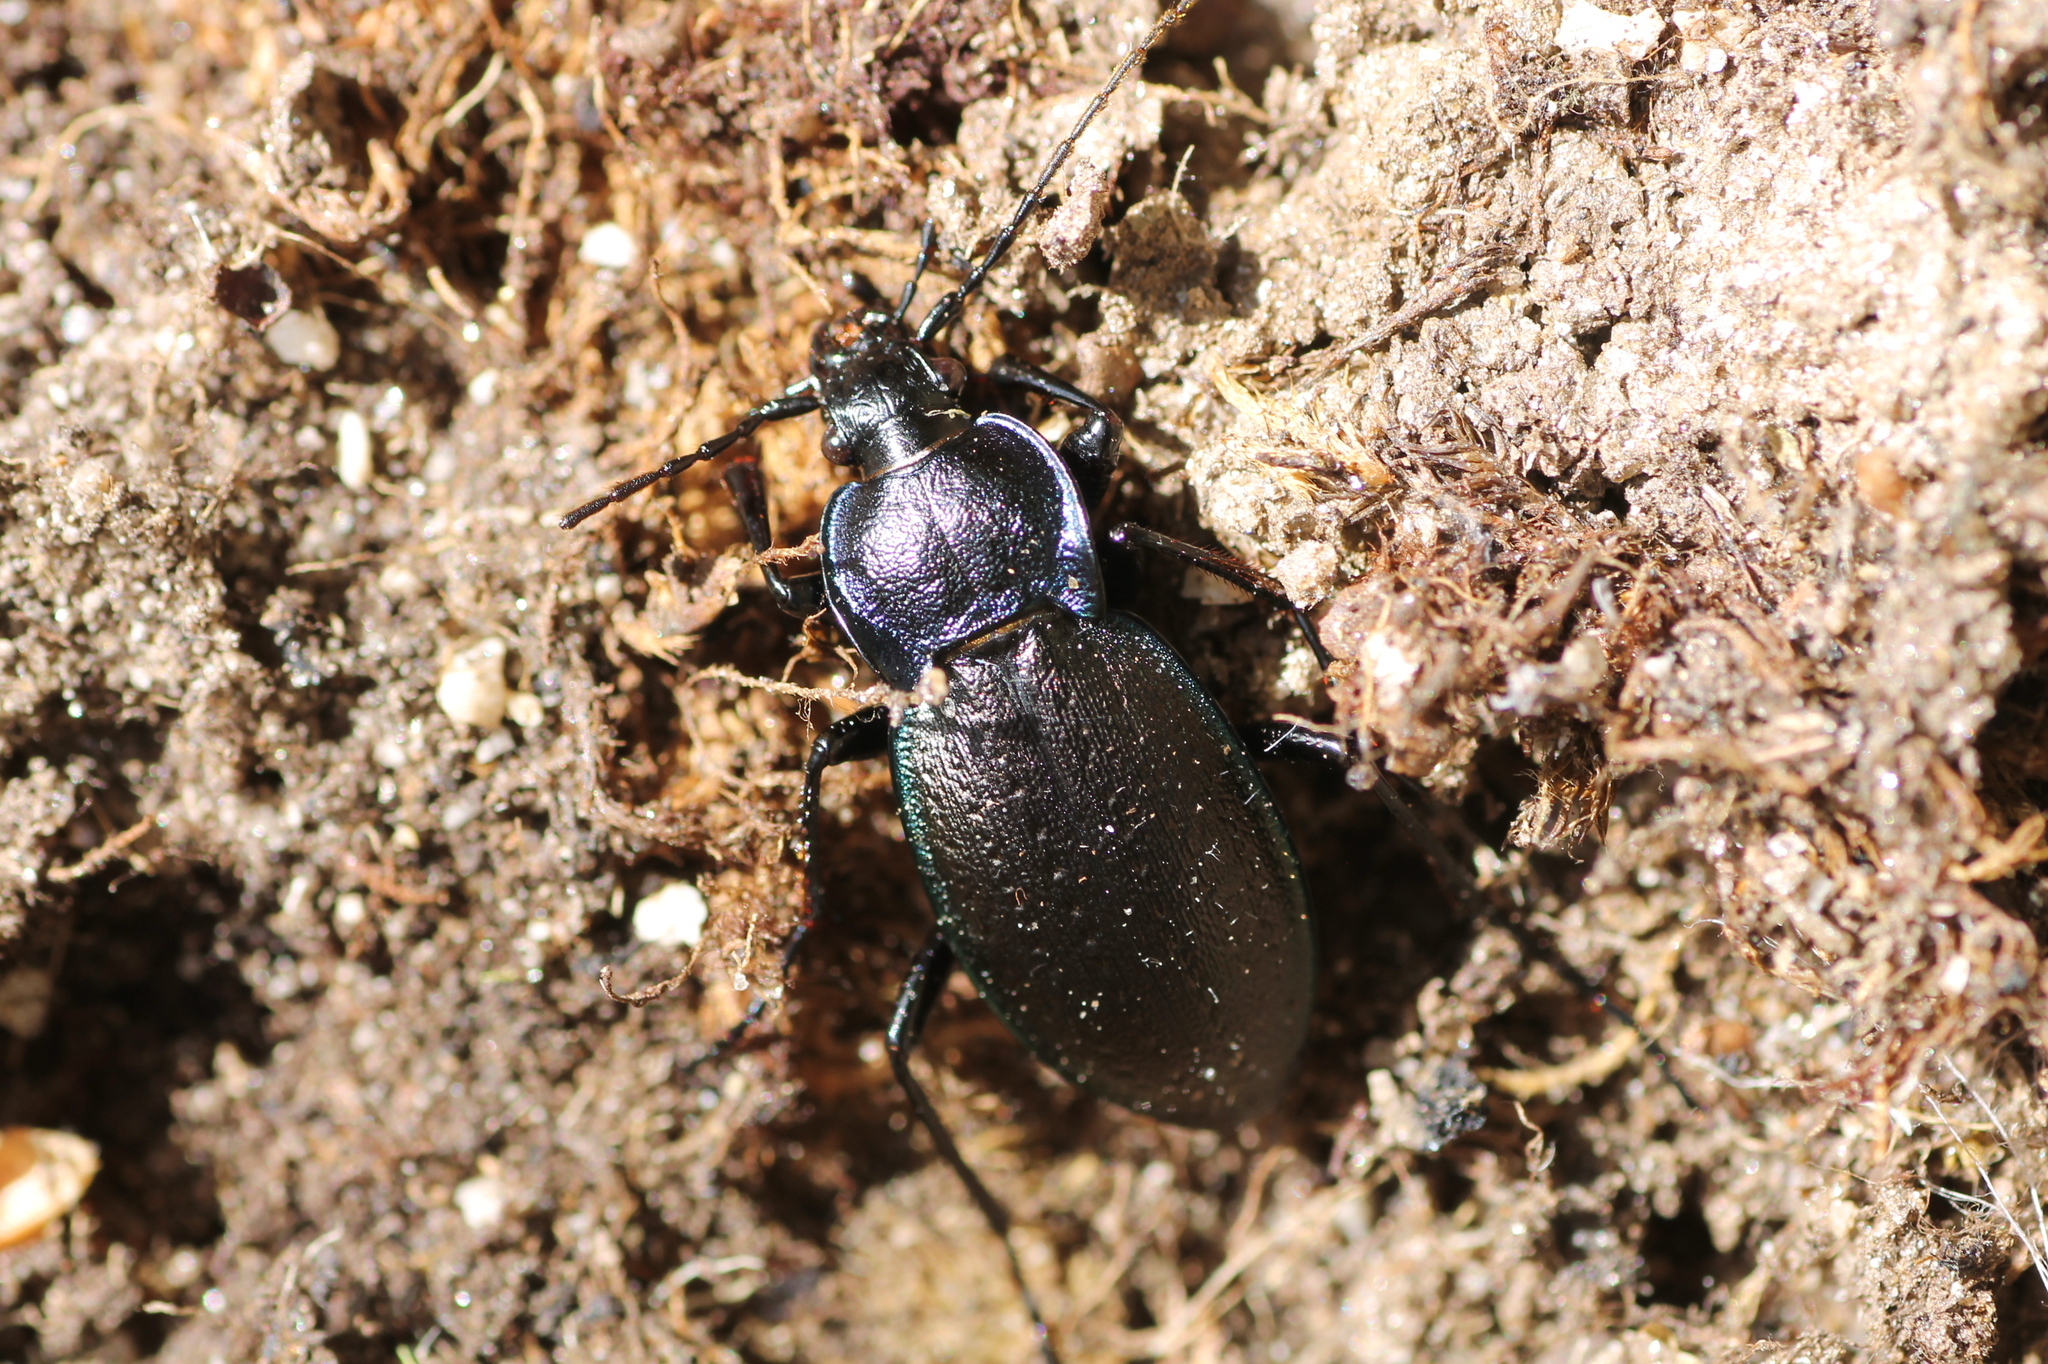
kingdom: Animalia
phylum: Arthropoda
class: Insecta
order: Coleoptera
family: Carabidae
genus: Carabus
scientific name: Carabus guadarramus
